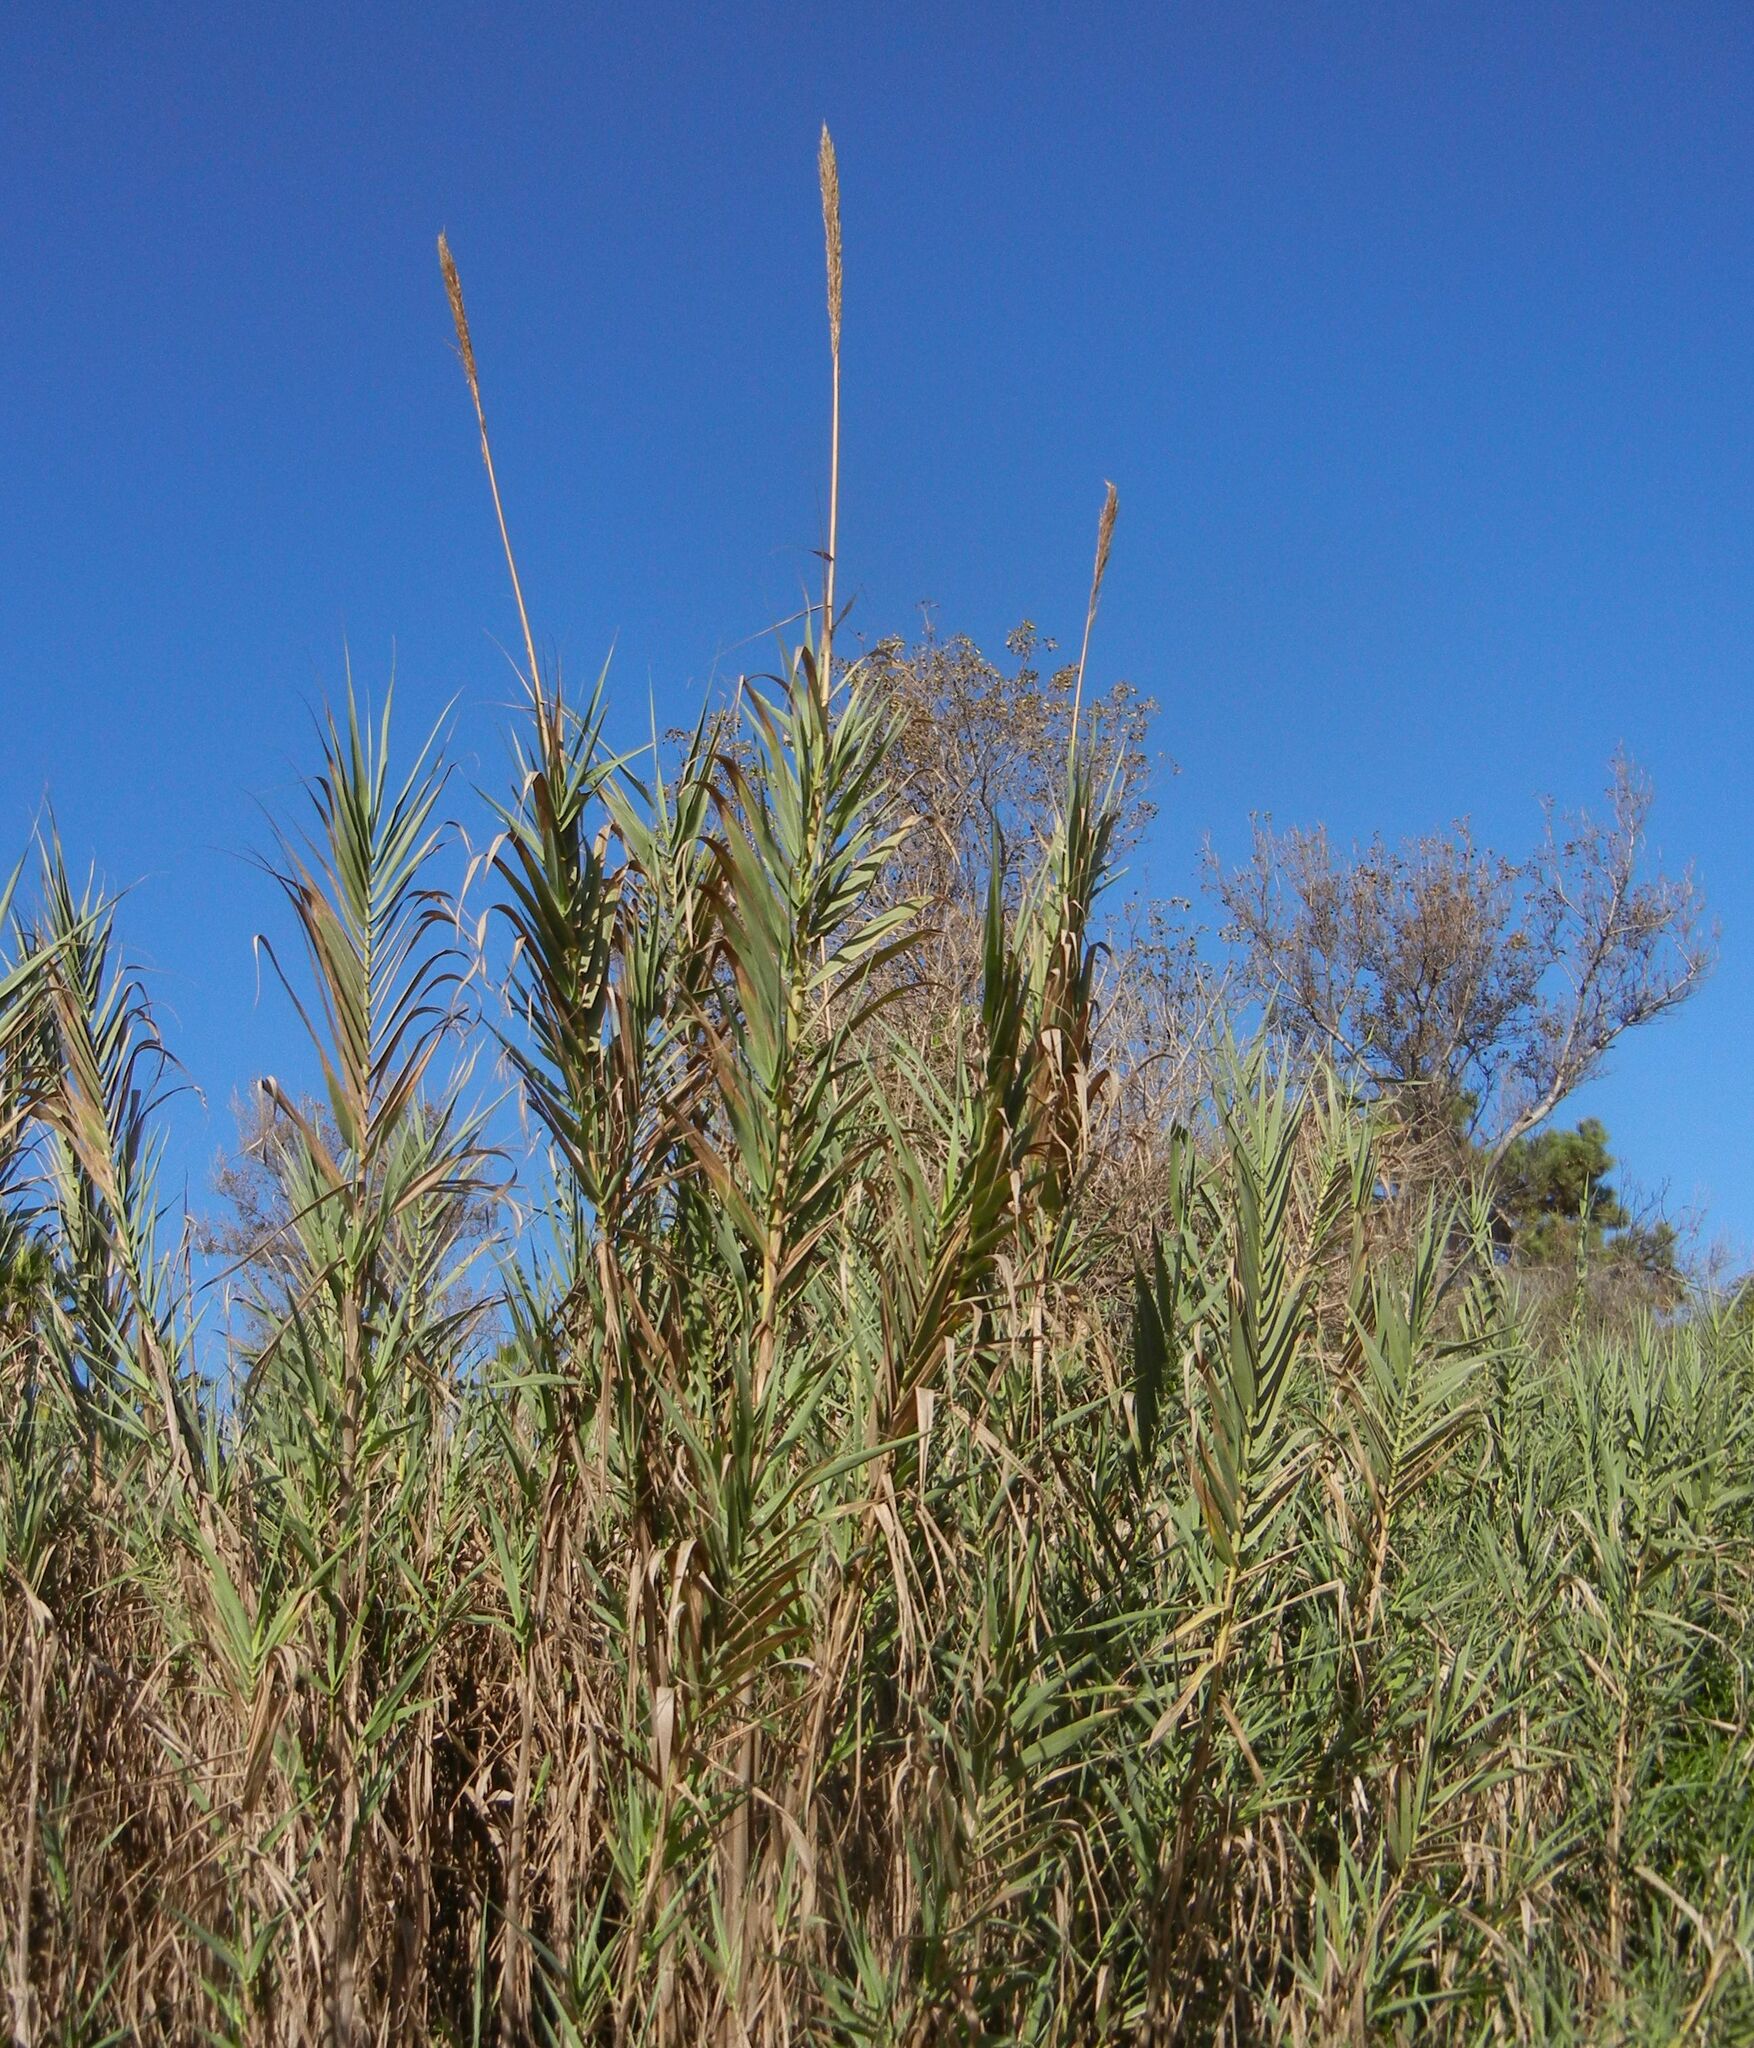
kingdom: Plantae
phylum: Tracheophyta
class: Liliopsida
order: Poales
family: Poaceae
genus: Arundo
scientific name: Arundo donax
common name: Giant reed
